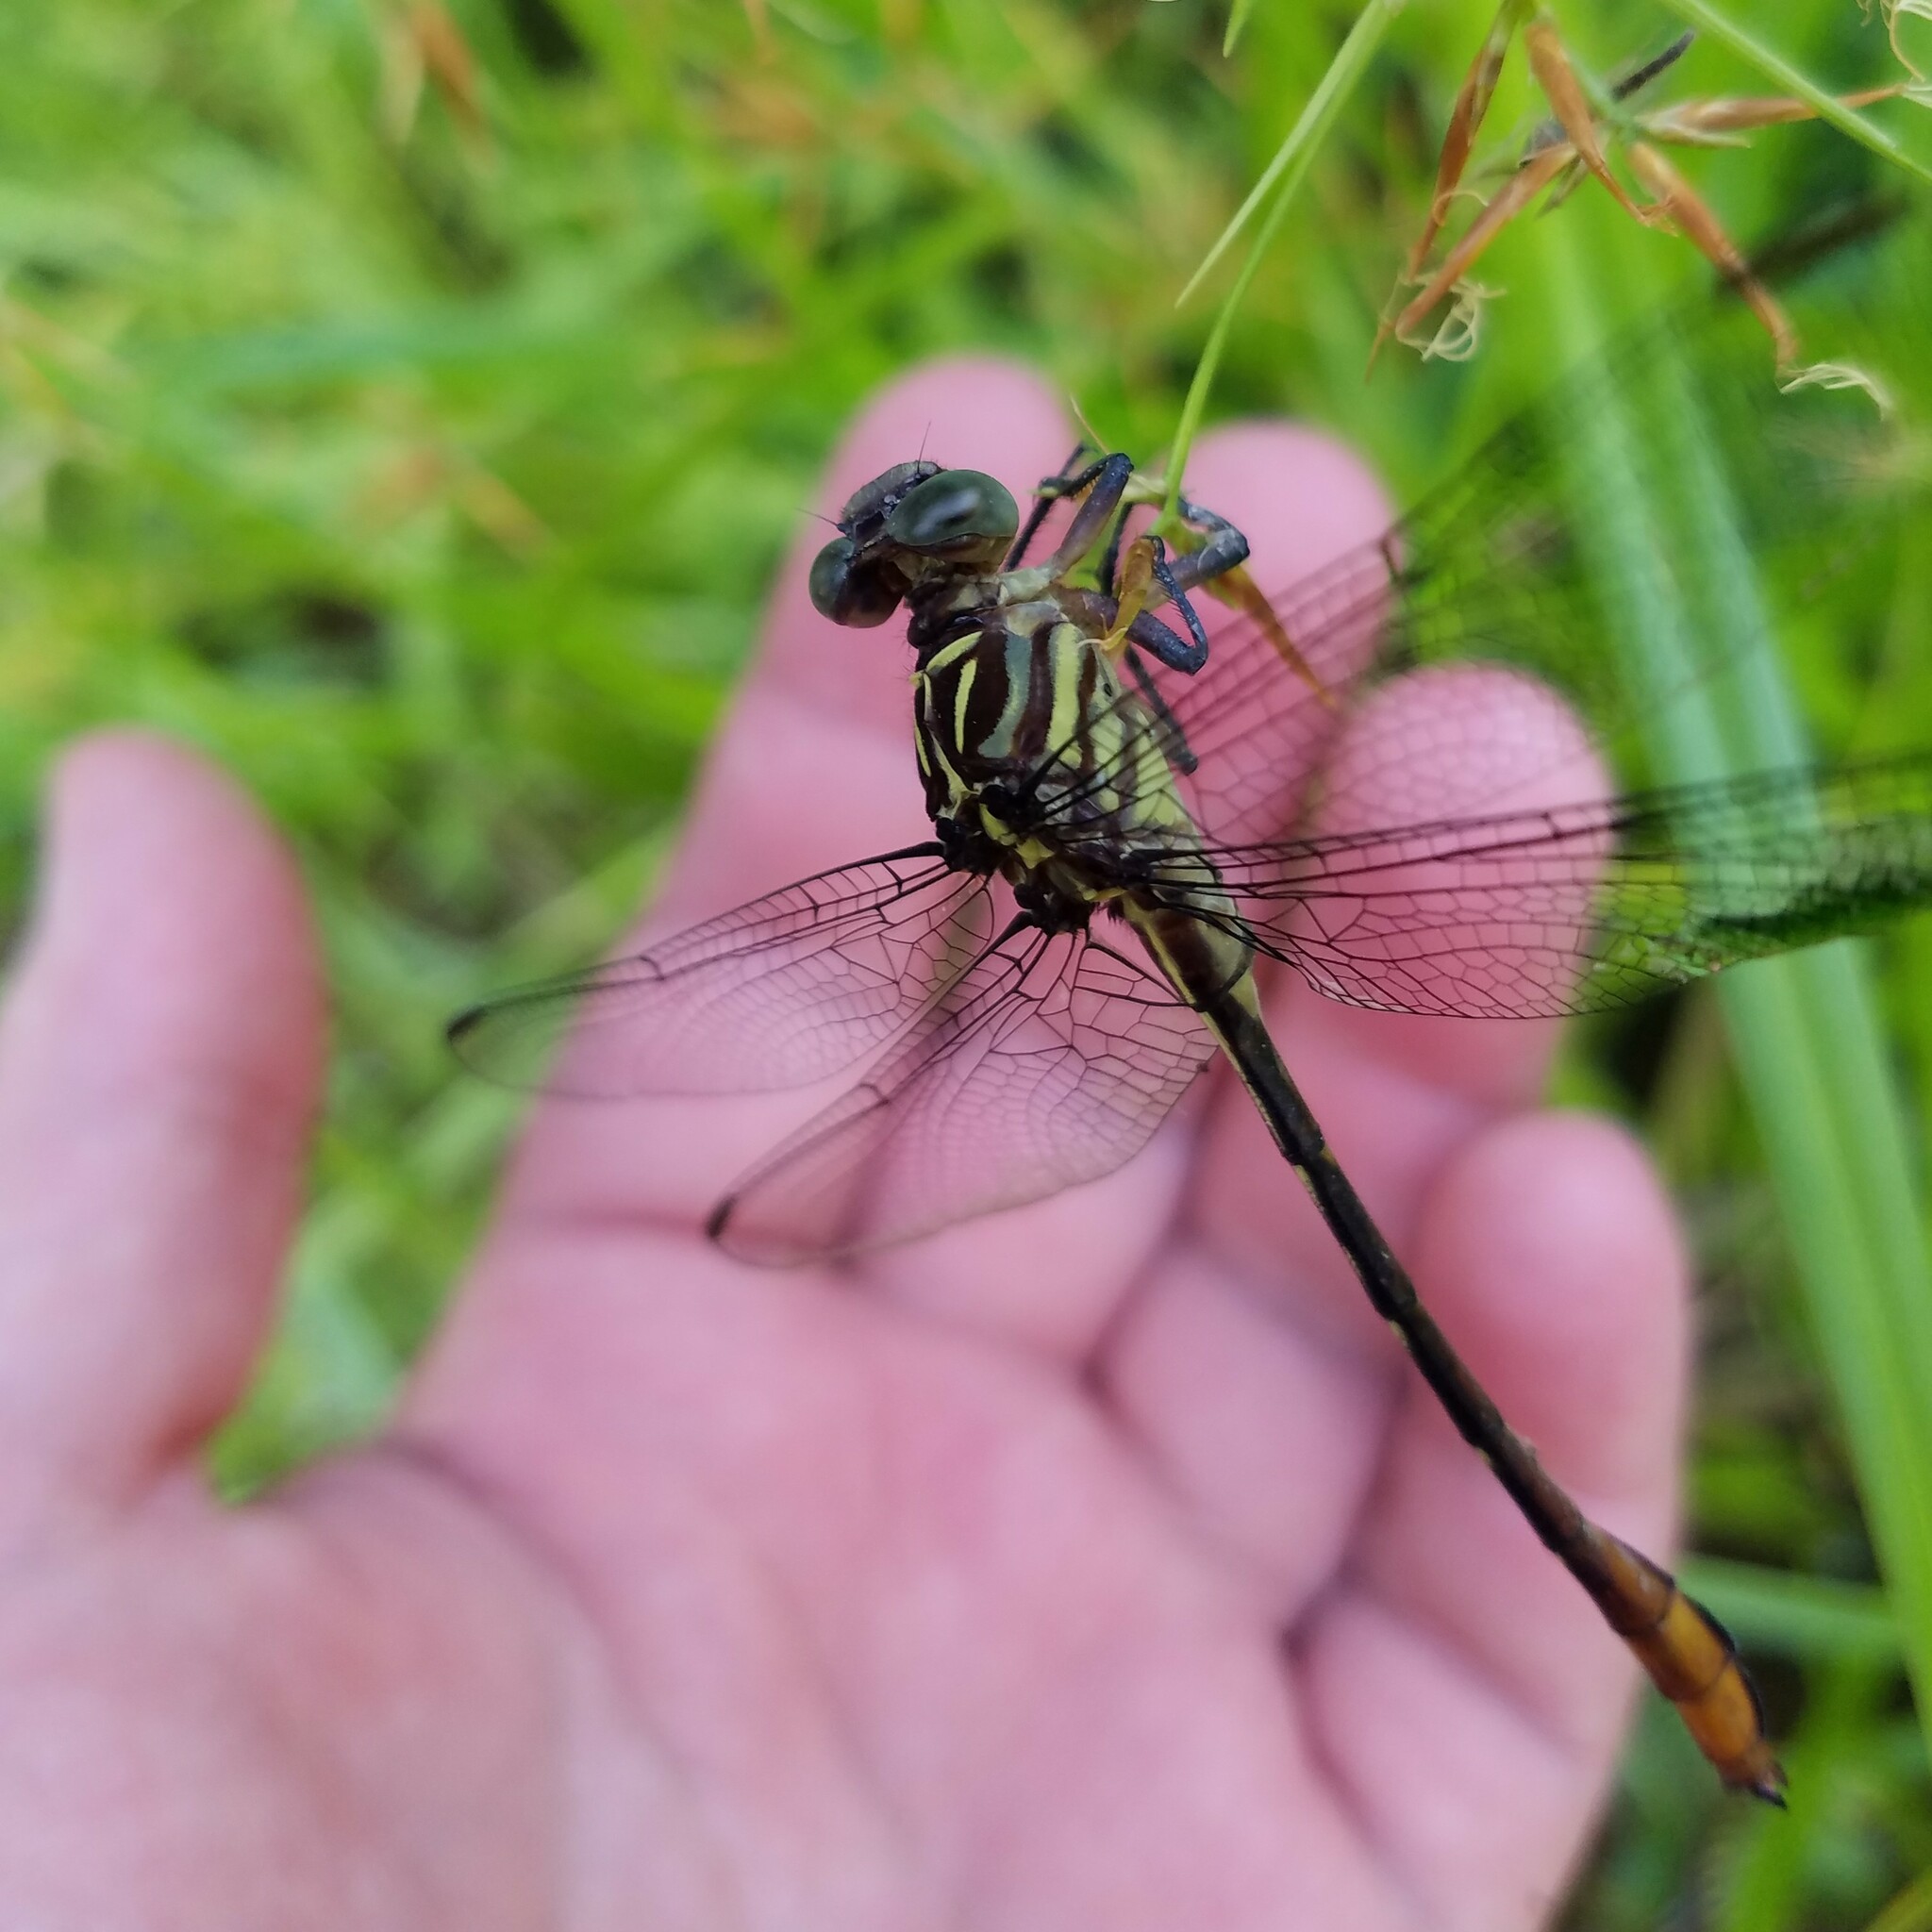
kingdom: Animalia
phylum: Arthropoda
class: Insecta
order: Odonata
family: Gomphidae
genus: Stylurus
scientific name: Stylurus plagiatus
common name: Russet-tipped clubtail
